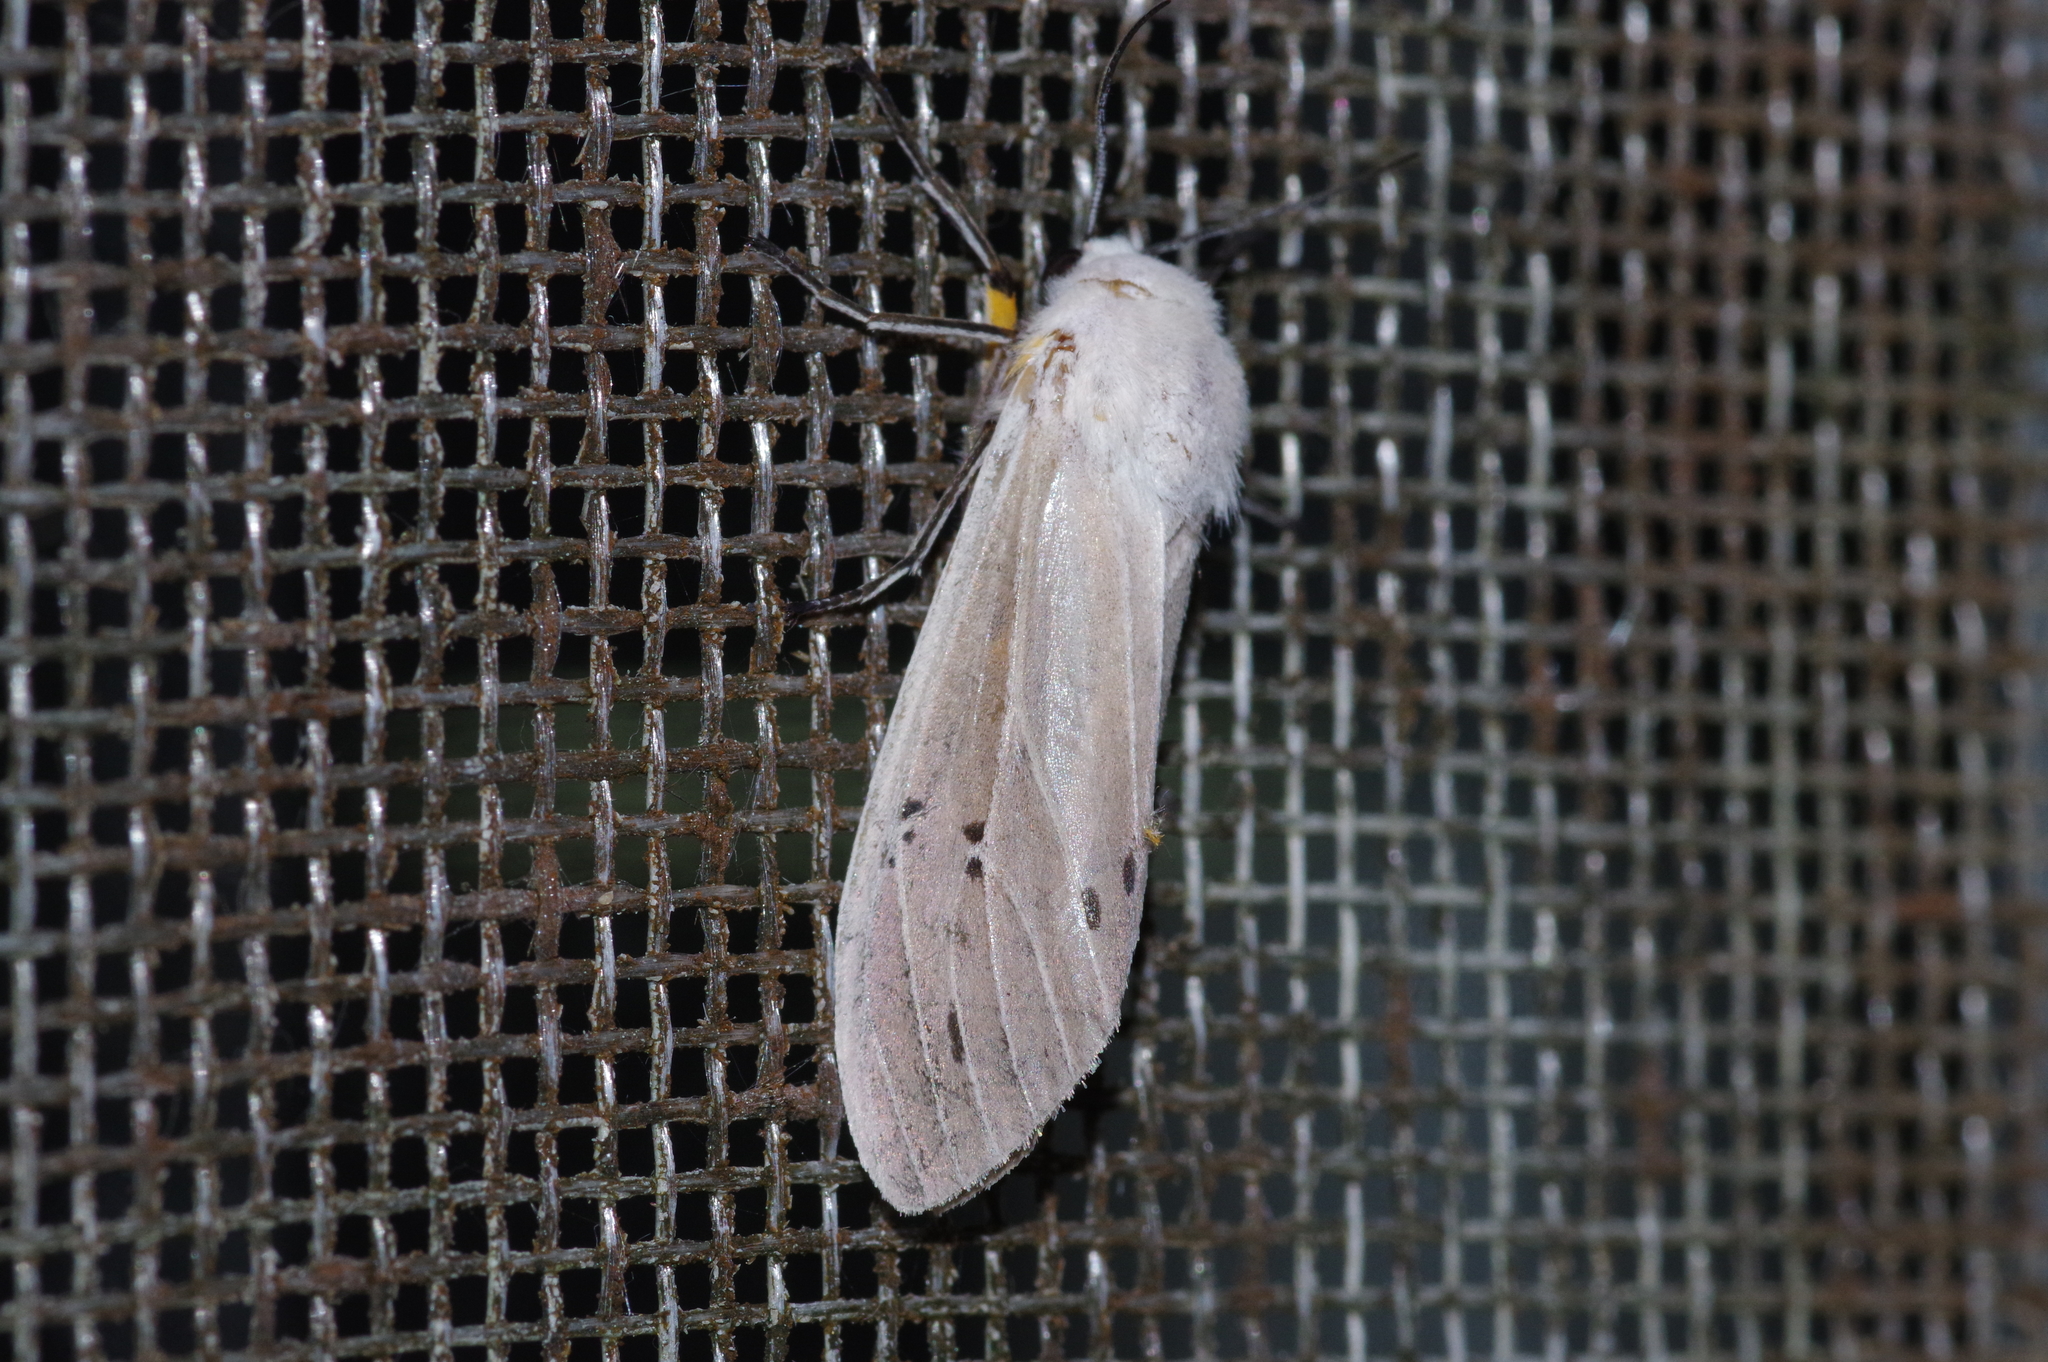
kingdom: Animalia
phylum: Arthropoda
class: Insecta
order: Lepidoptera
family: Erebidae
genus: Creatonotos
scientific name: Creatonotos transiens
